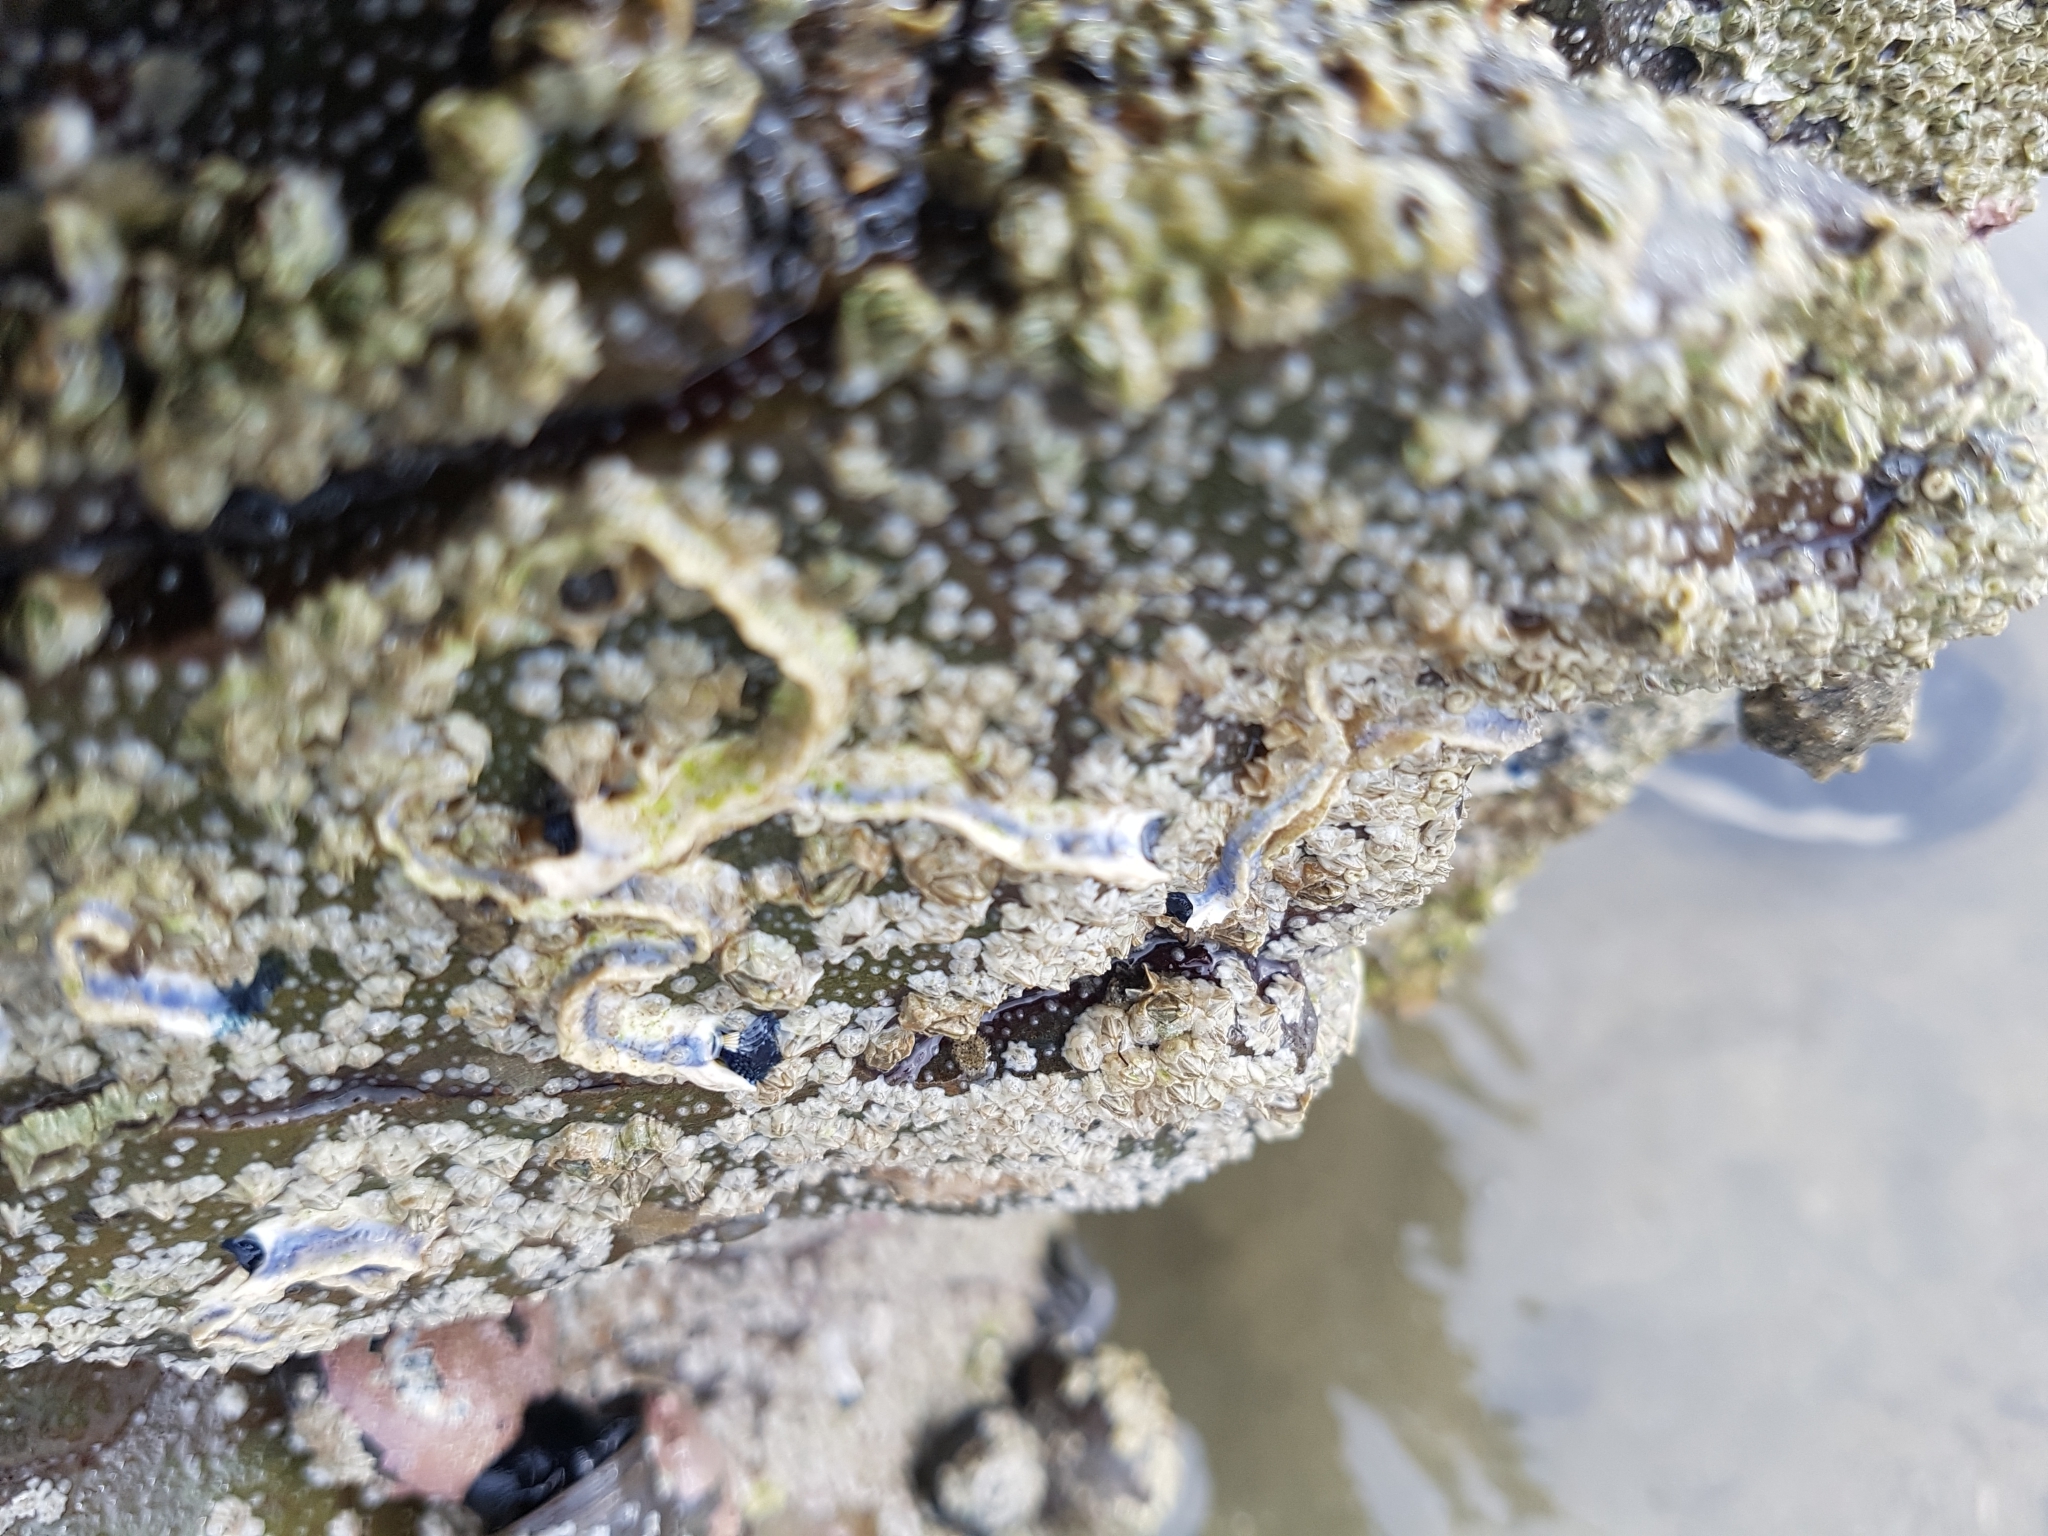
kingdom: Animalia
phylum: Annelida
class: Polychaeta
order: Sabellida
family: Serpulidae
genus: Spirobranchus
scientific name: Spirobranchus cariniferus
